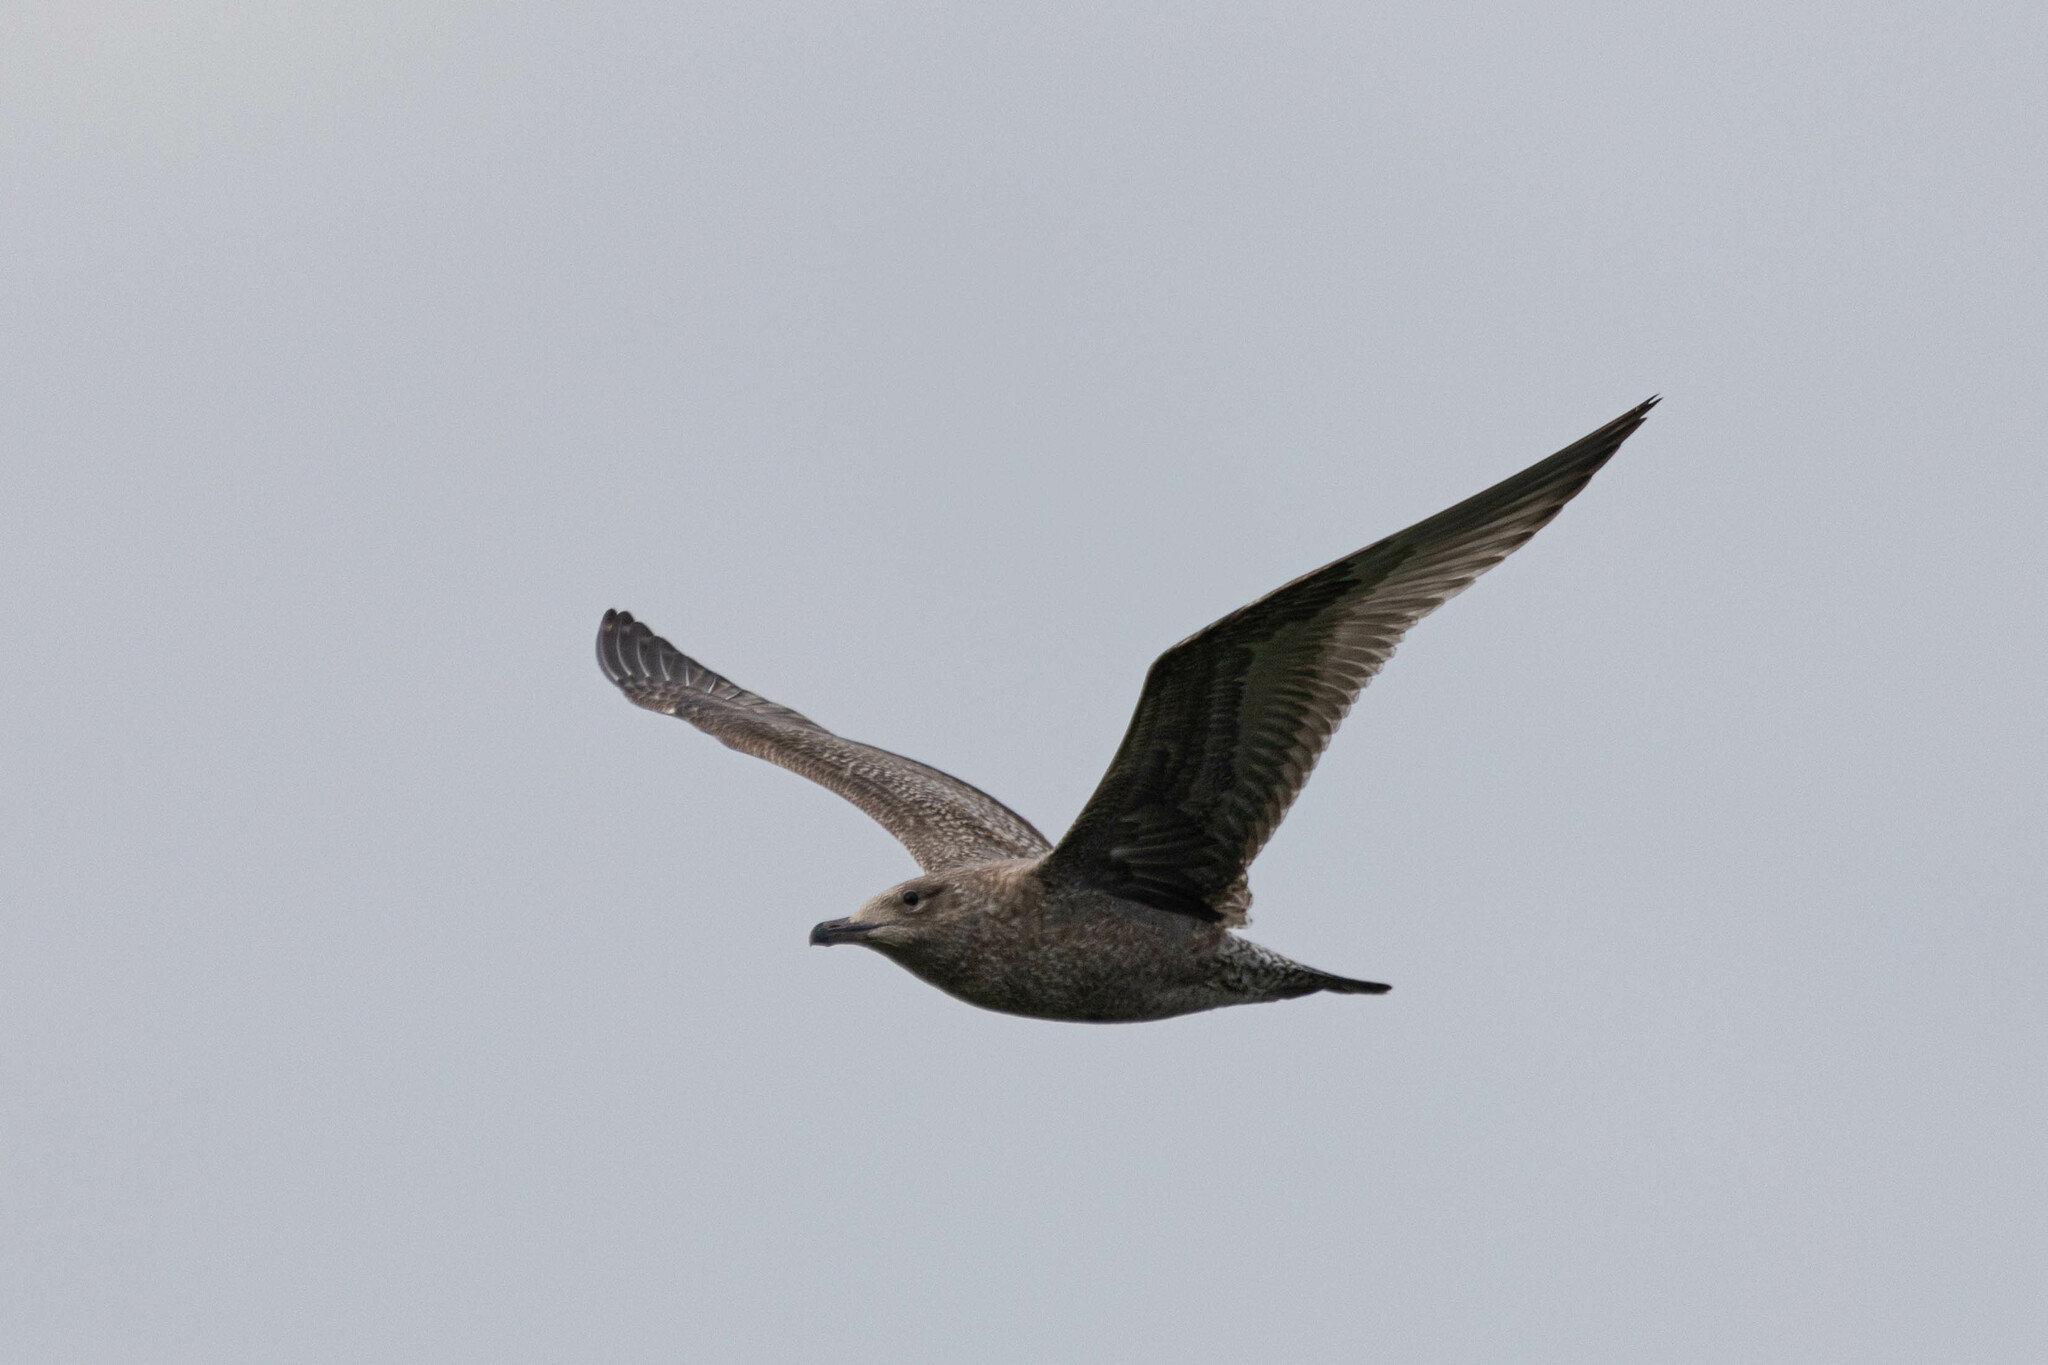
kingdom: Animalia
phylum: Chordata
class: Aves
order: Charadriiformes
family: Laridae
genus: Larus
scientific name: Larus argentatus
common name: Herring gull
